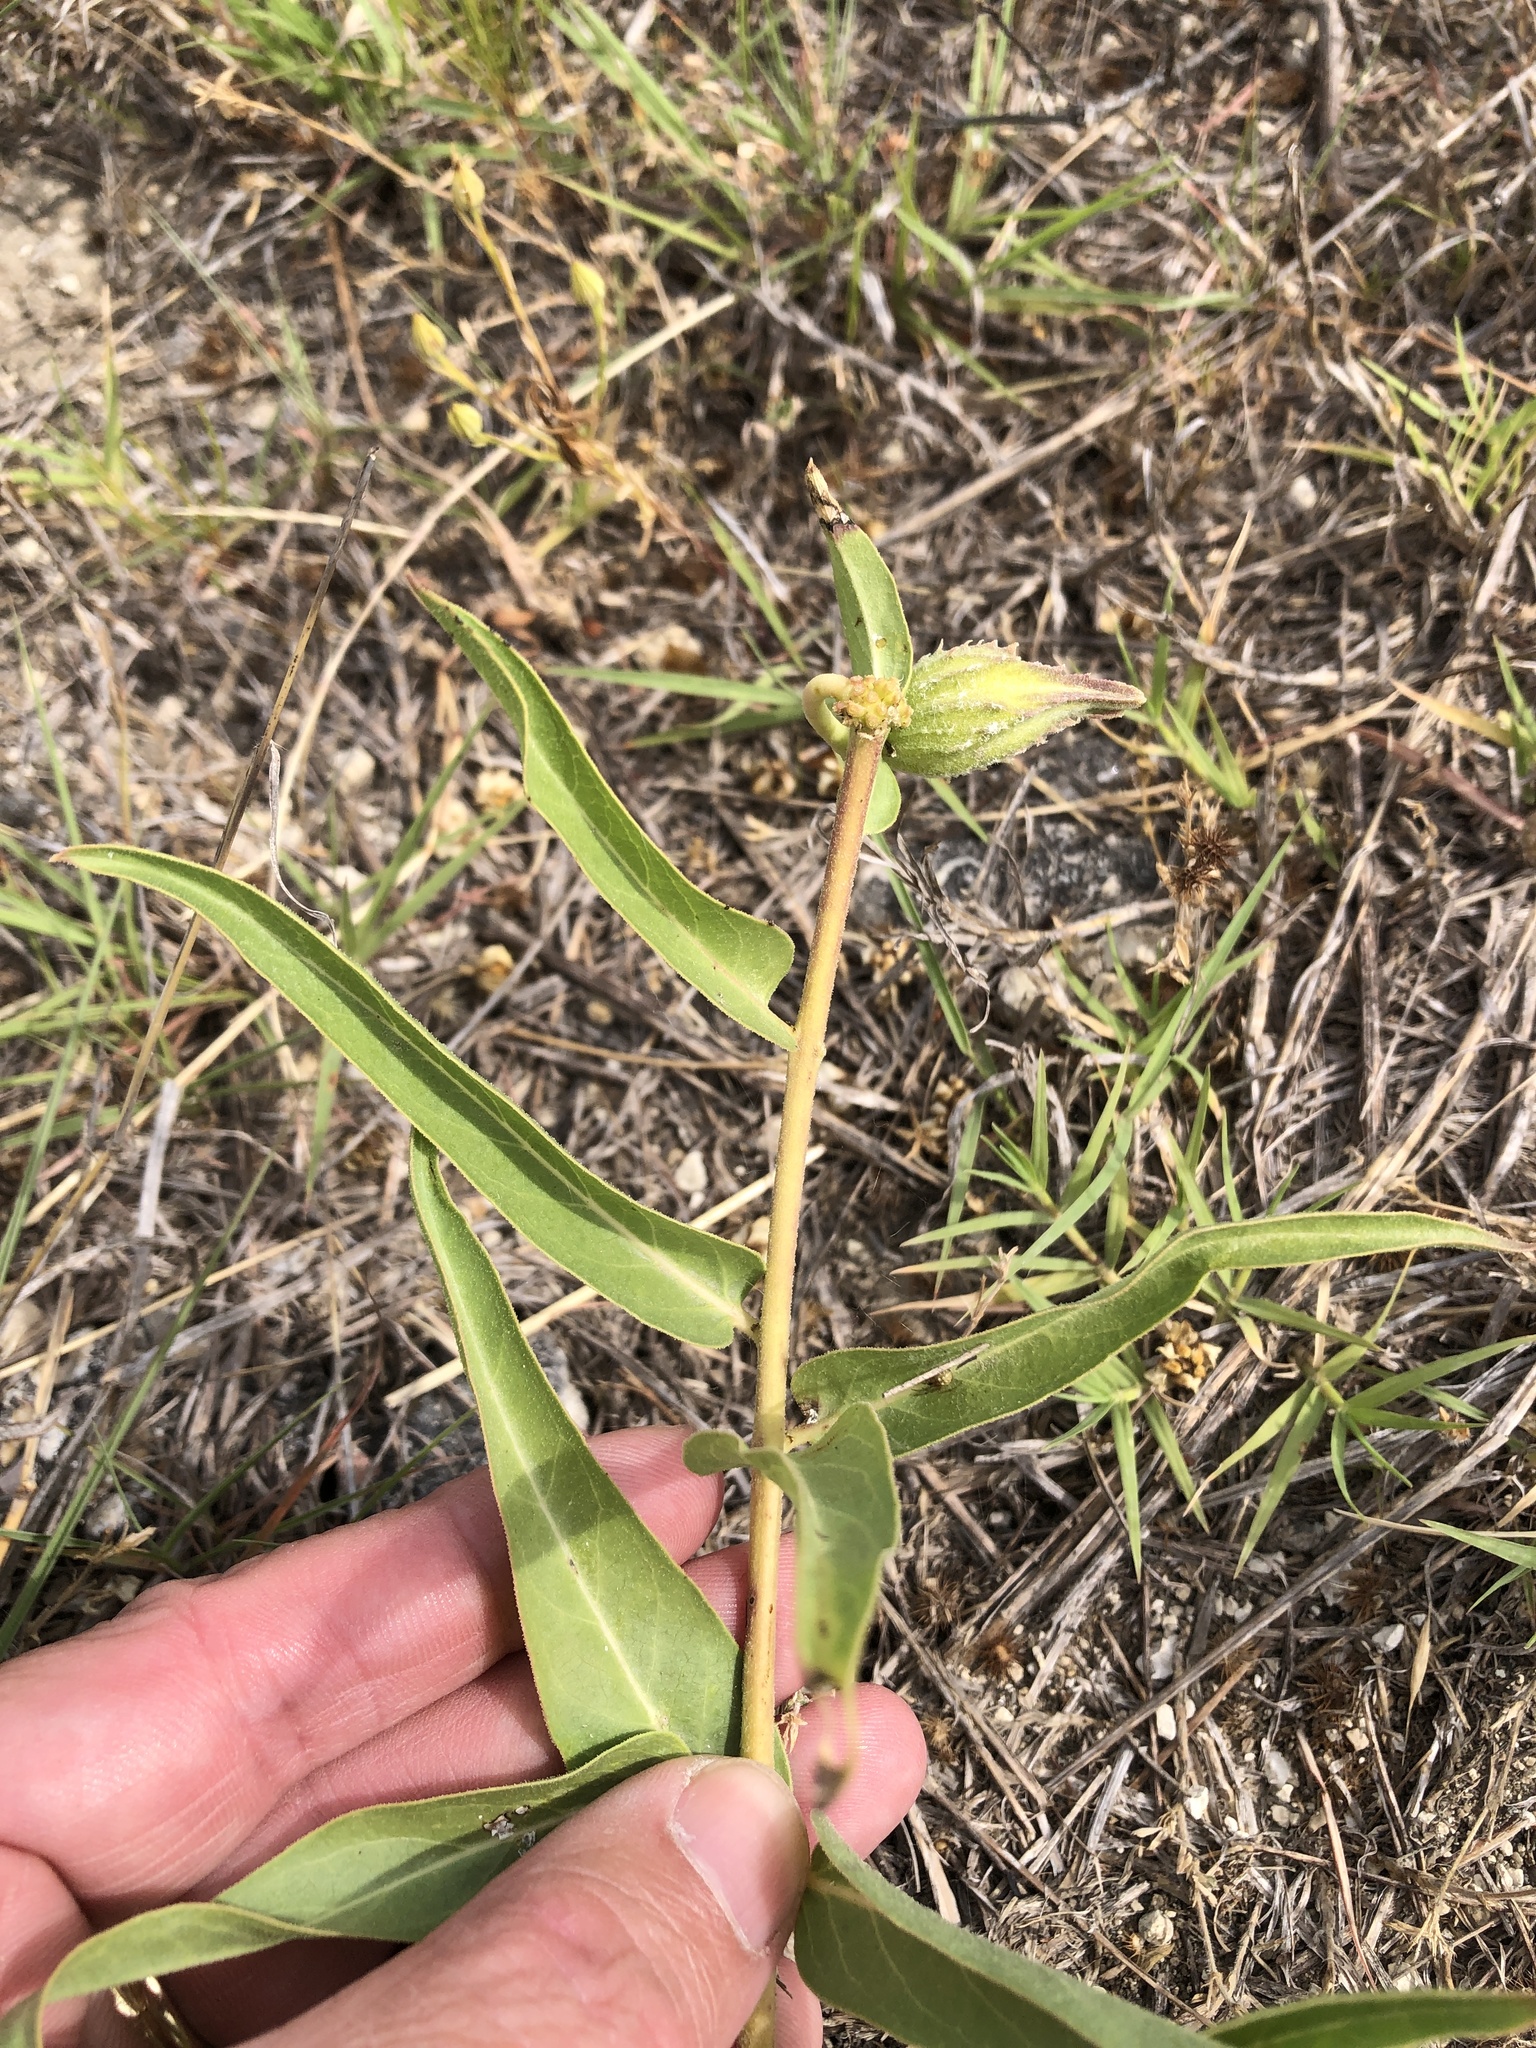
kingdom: Plantae
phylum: Tracheophyta
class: Magnoliopsida
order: Gentianales
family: Apocynaceae
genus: Asclepias
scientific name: Asclepias asperula
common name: Antelope horns
